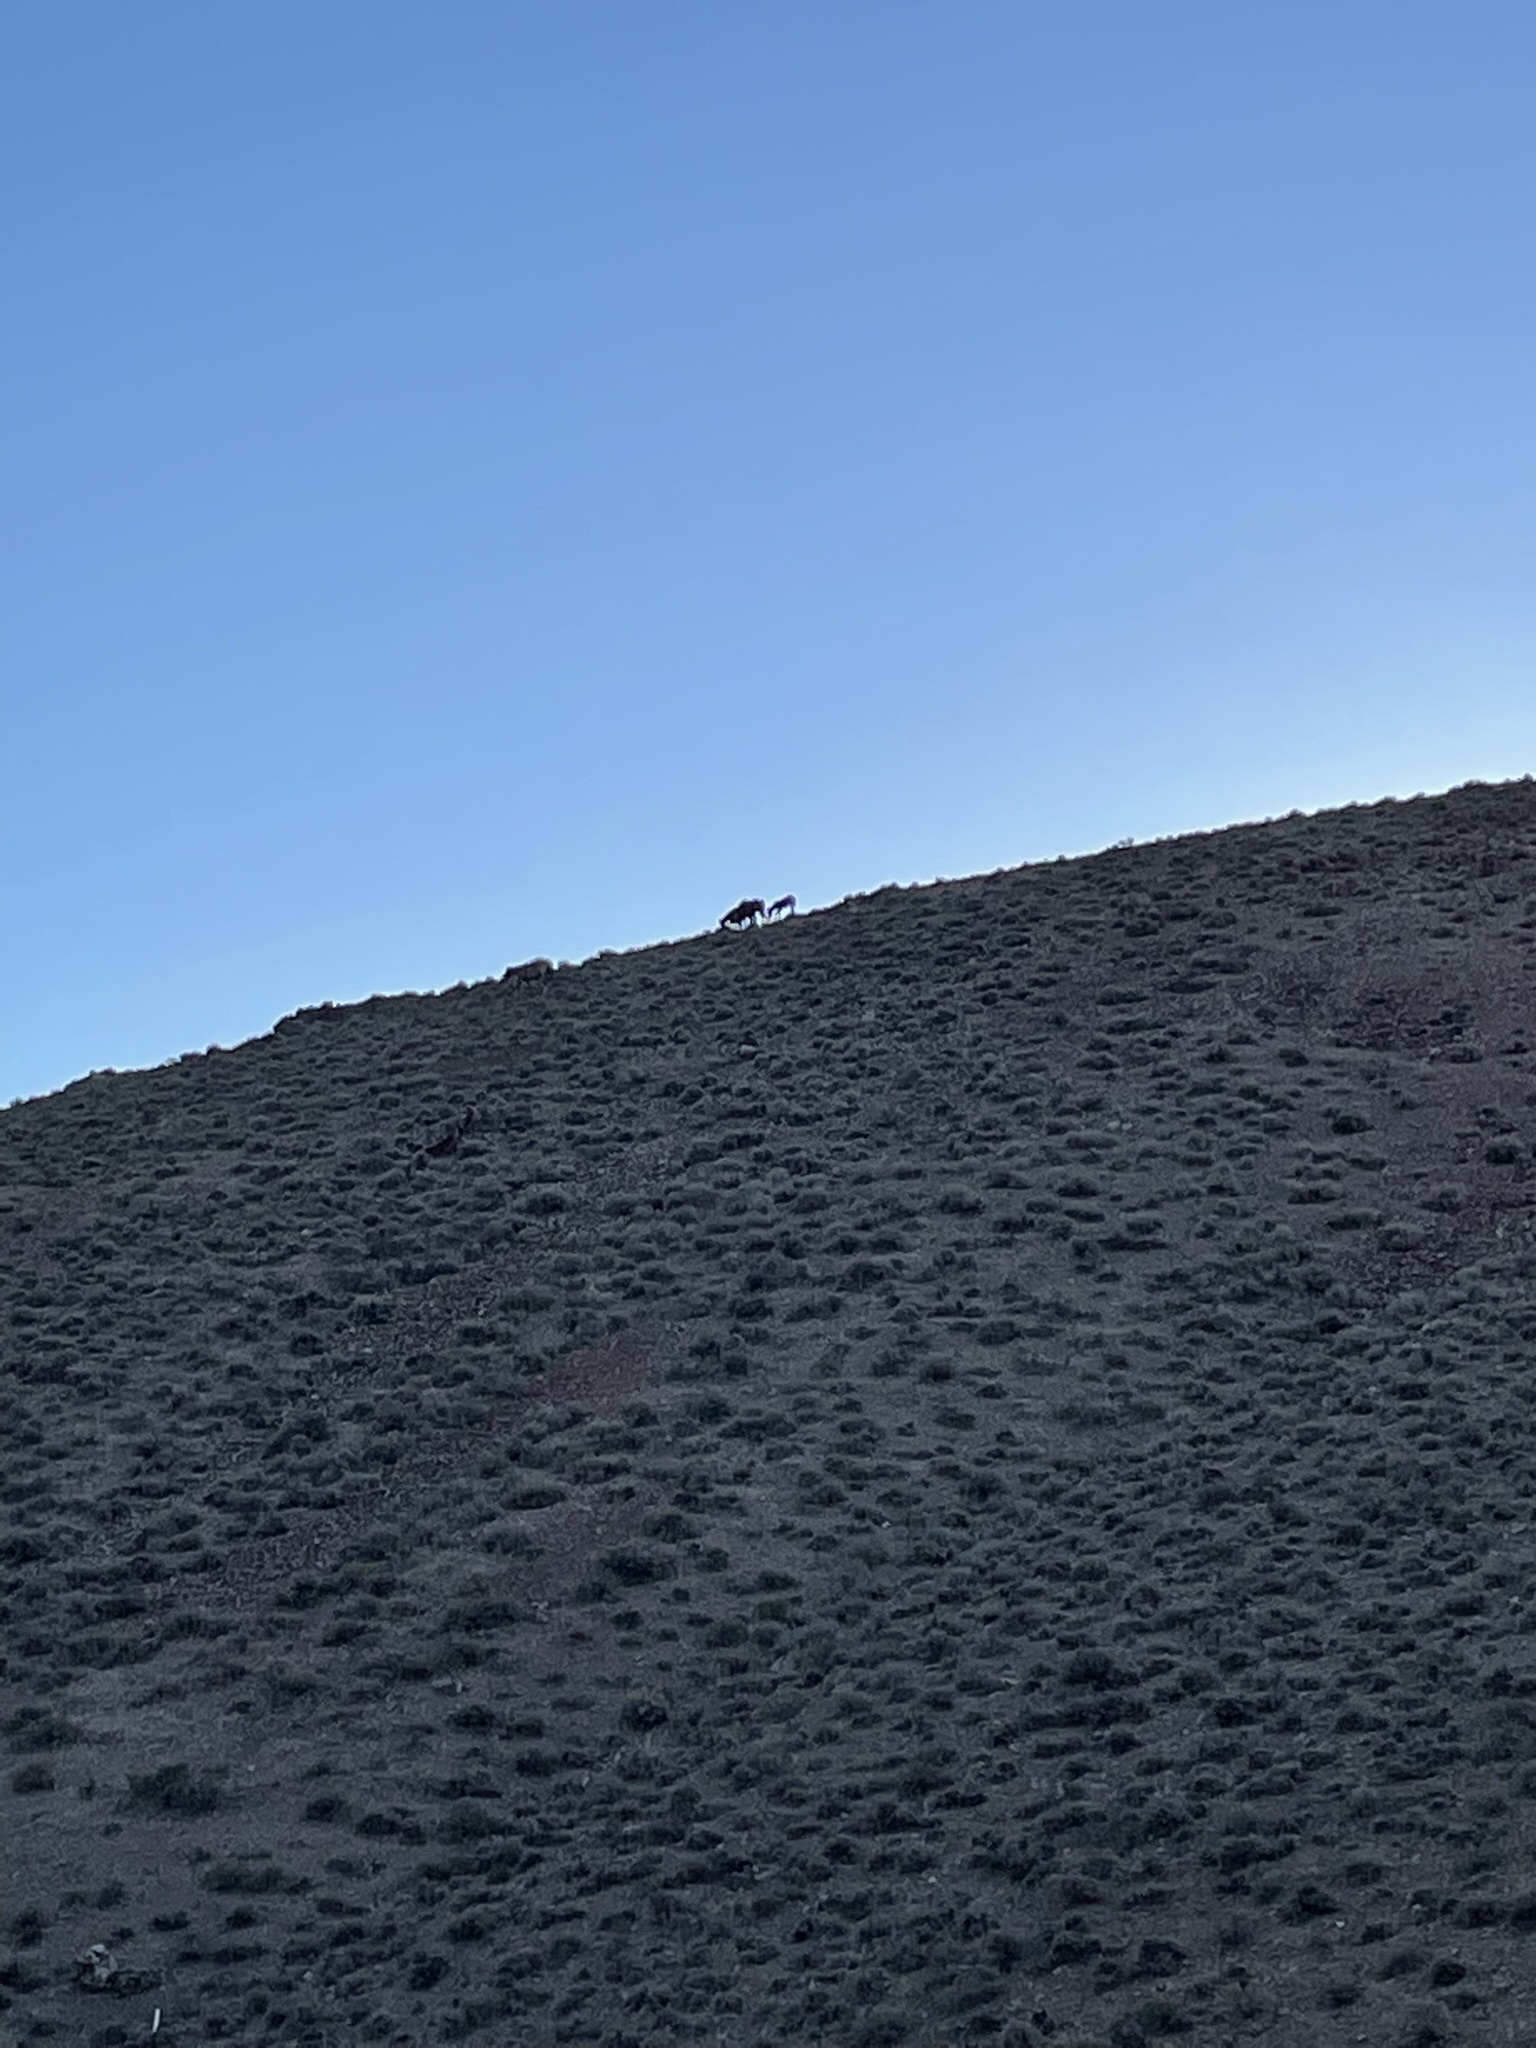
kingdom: Animalia
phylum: Chordata
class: Mammalia
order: Perissodactyla
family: Equidae
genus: Equus
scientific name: Equus caballus
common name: Horse
